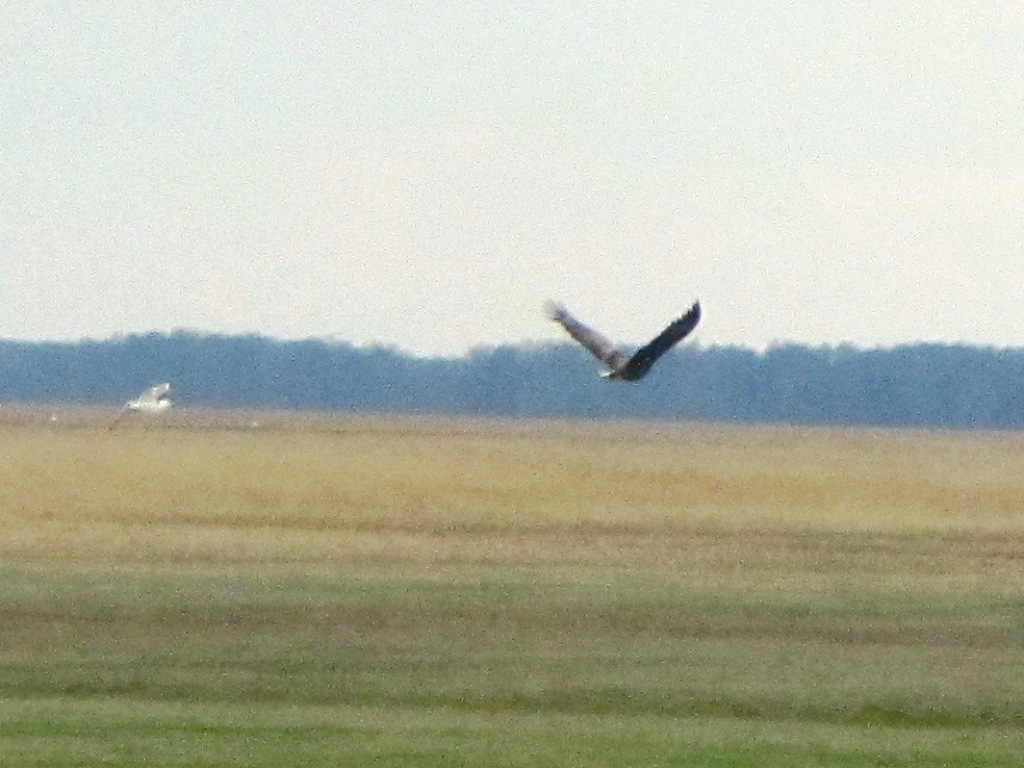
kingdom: Animalia
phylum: Chordata
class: Aves
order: Accipitriformes
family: Accipitridae
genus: Haliaeetus
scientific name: Haliaeetus albicilla
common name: White-tailed eagle
